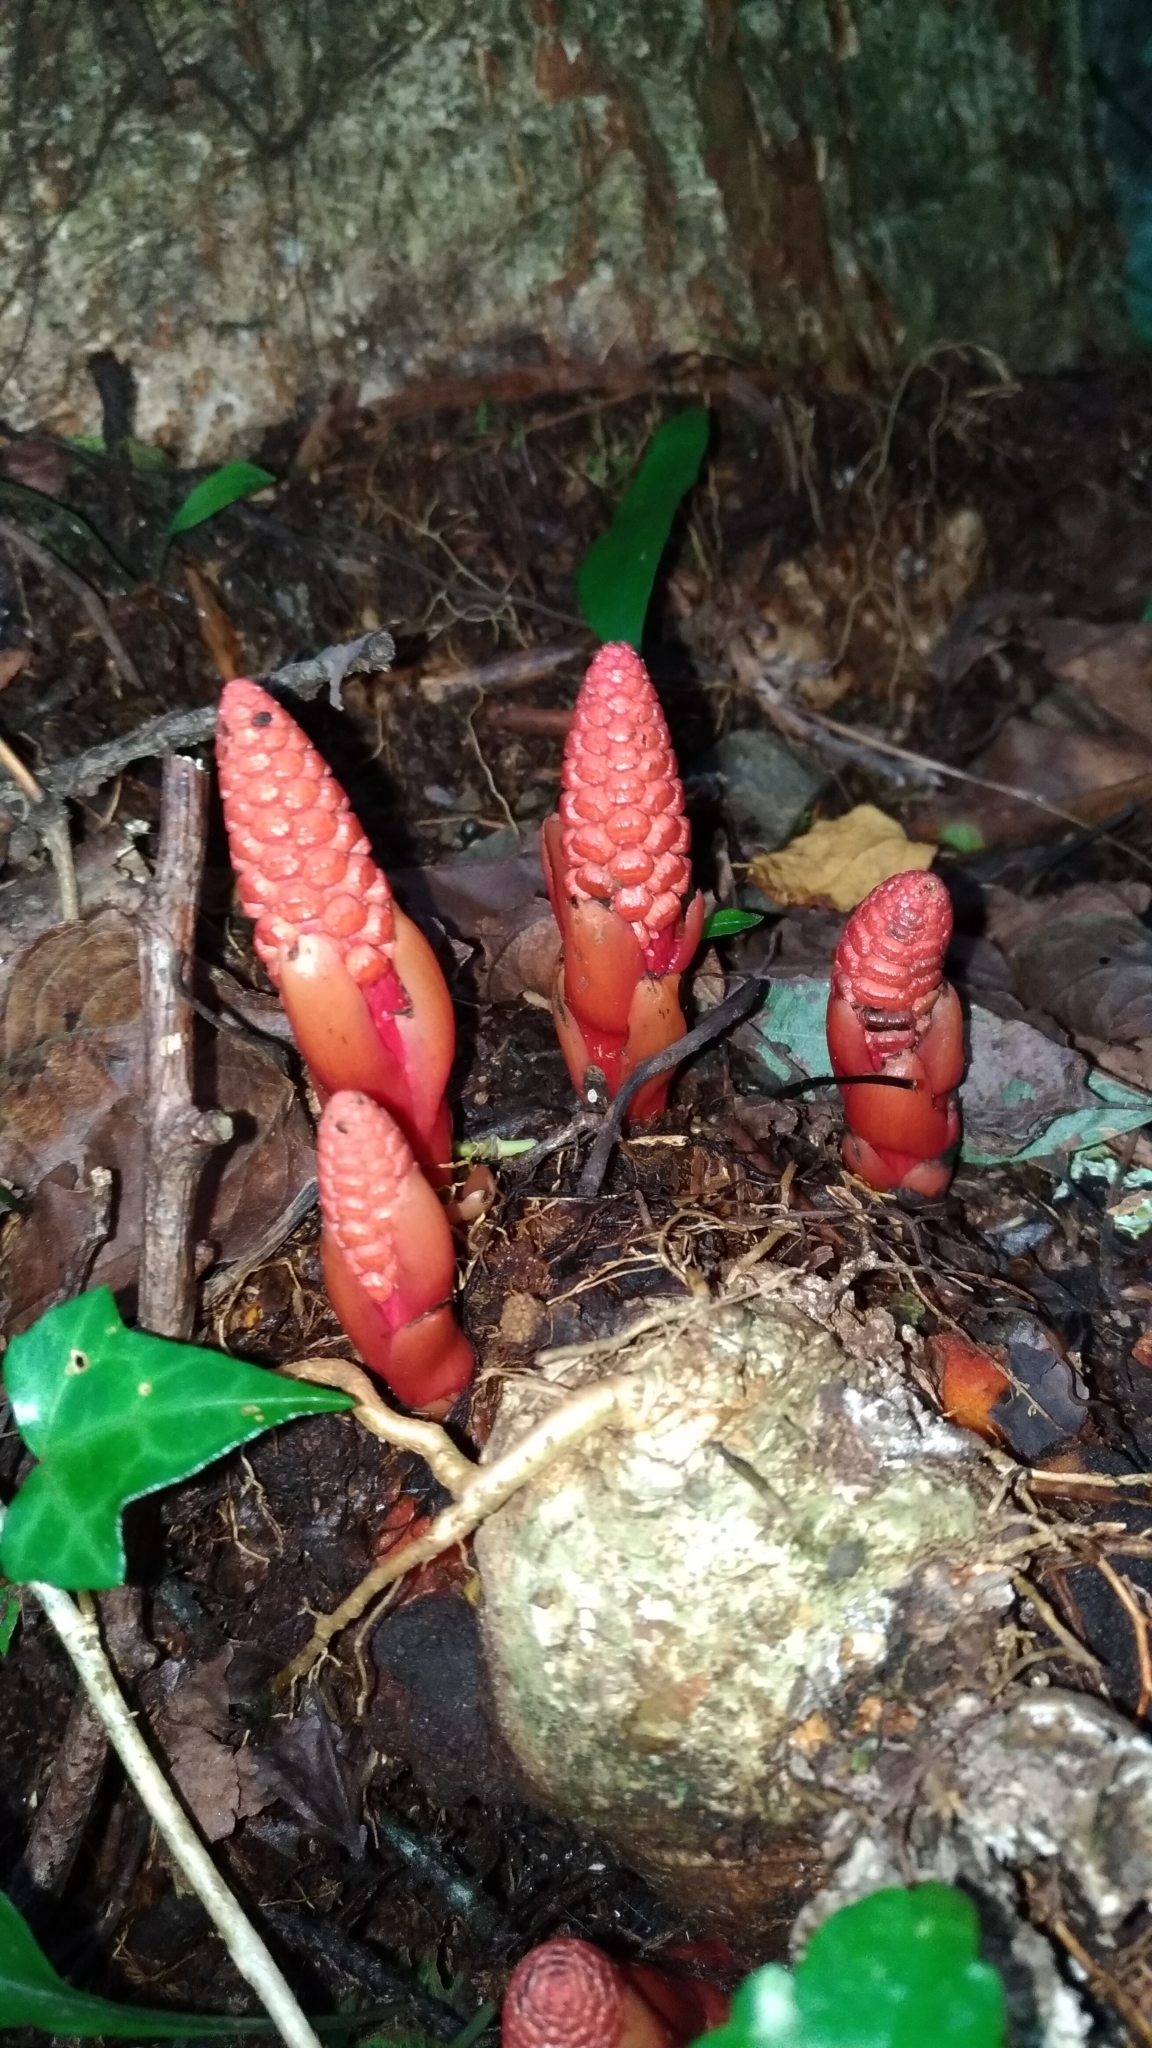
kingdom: Plantae
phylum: Tracheophyta
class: Magnoliopsida
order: Santalales
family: Balanophoraceae
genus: Balanophora
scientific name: Balanophora laxiflora
